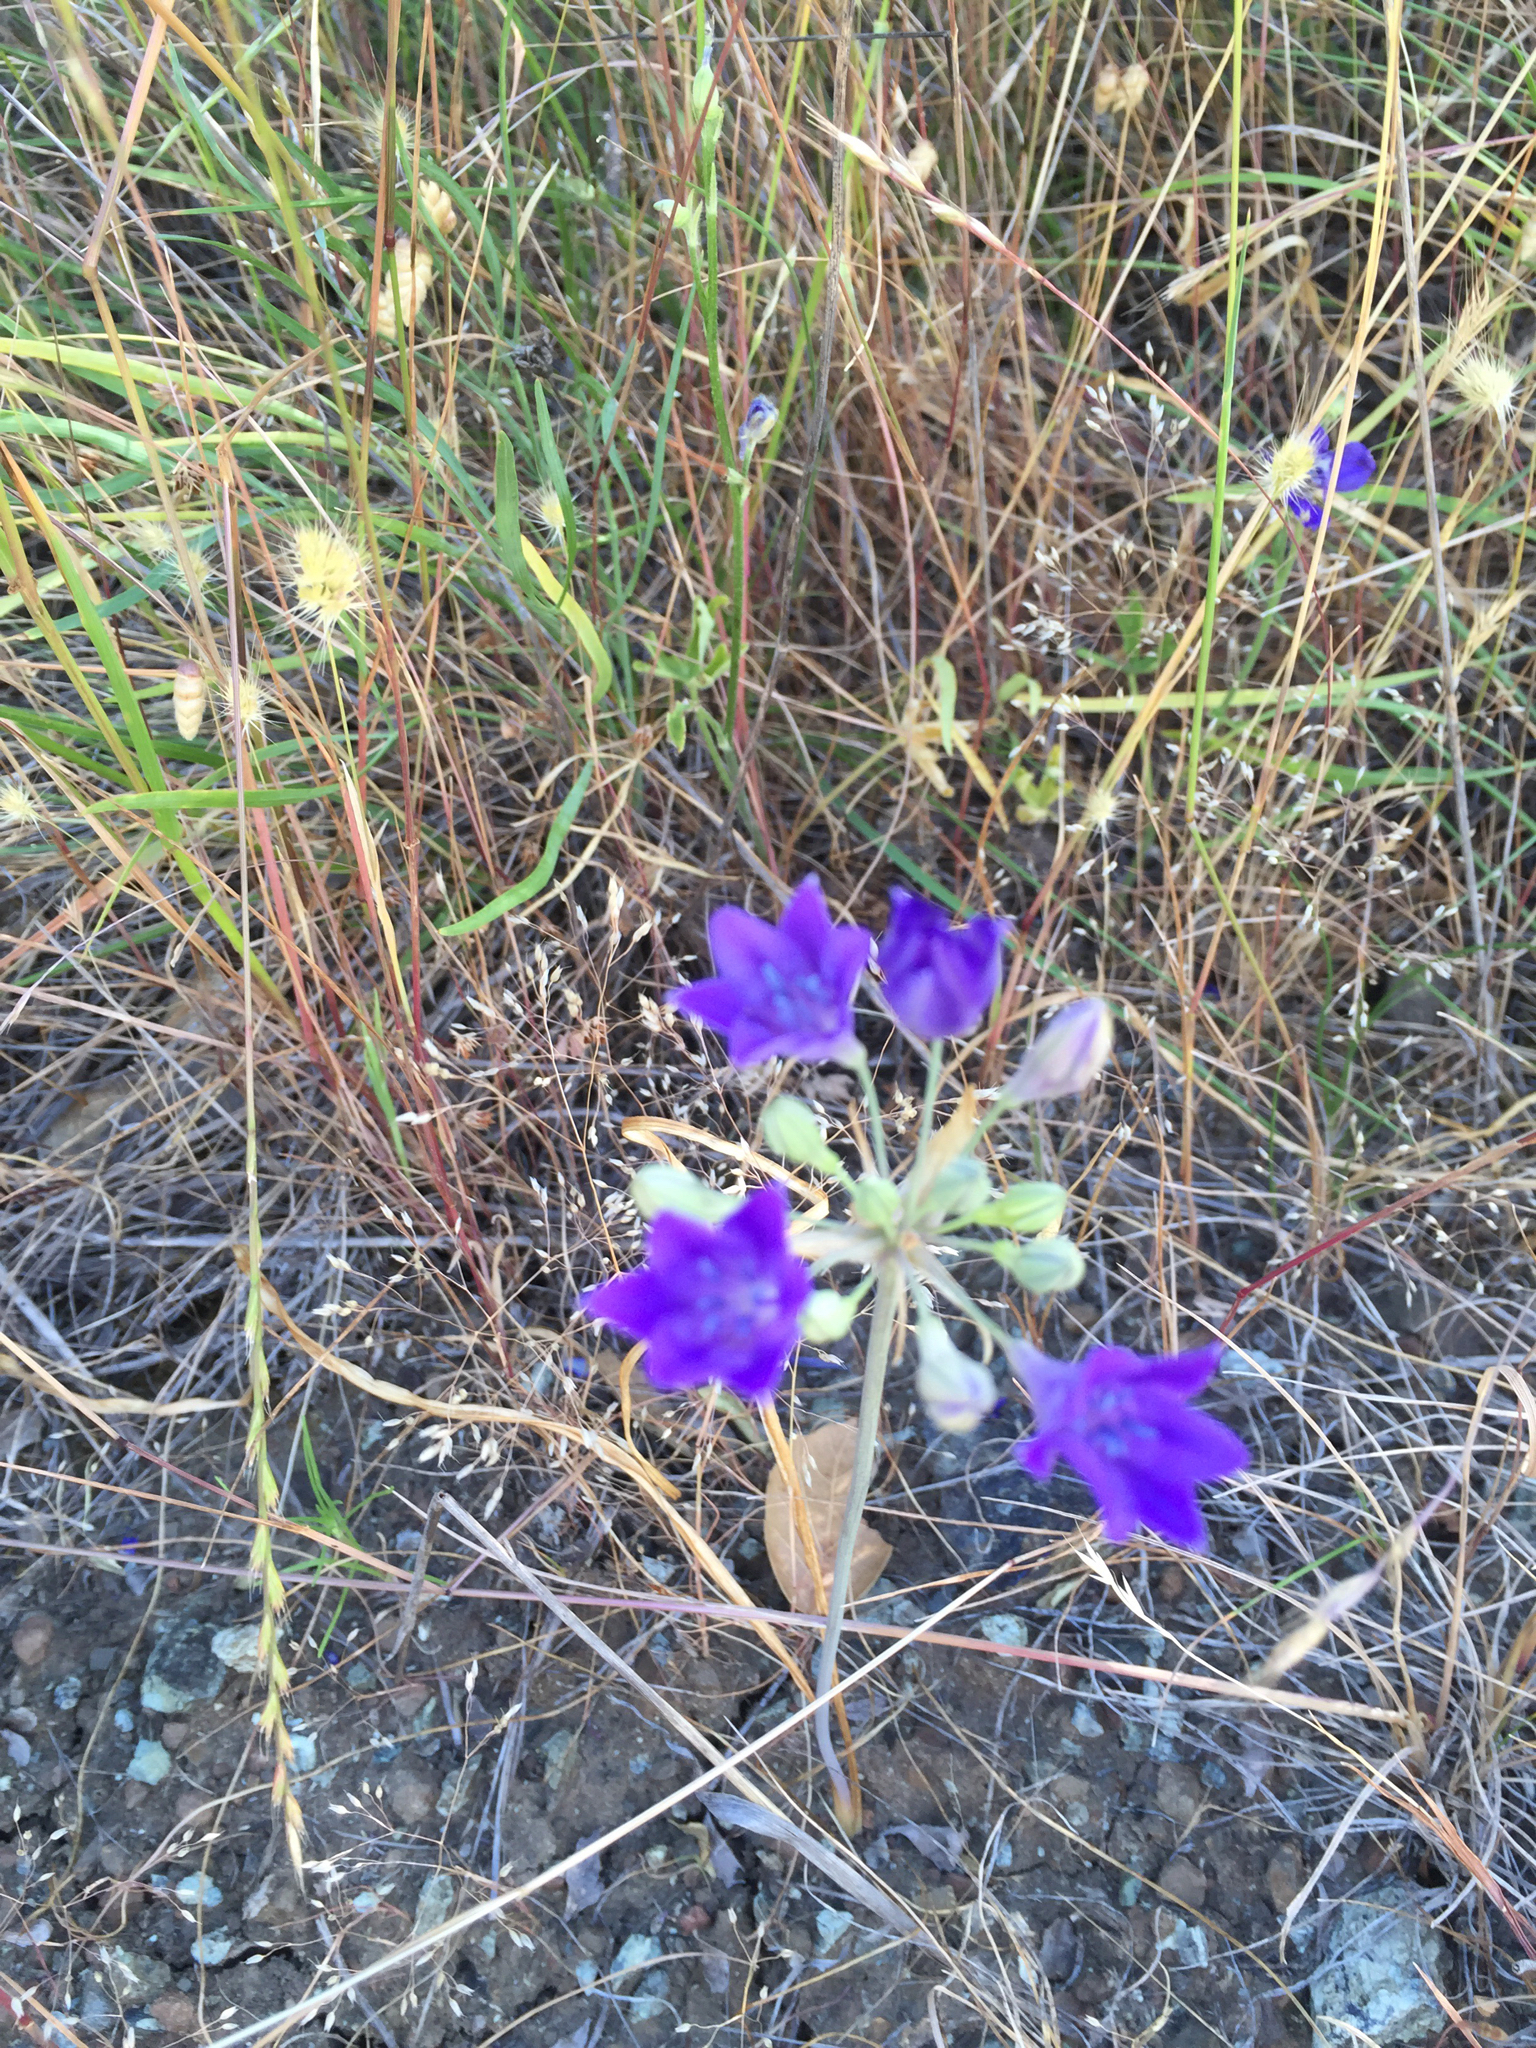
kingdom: Plantae
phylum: Tracheophyta
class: Liliopsida
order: Asparagales
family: Asparagaceae
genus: Triteleia
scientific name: Triteleia laxa
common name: Triplet-lily
